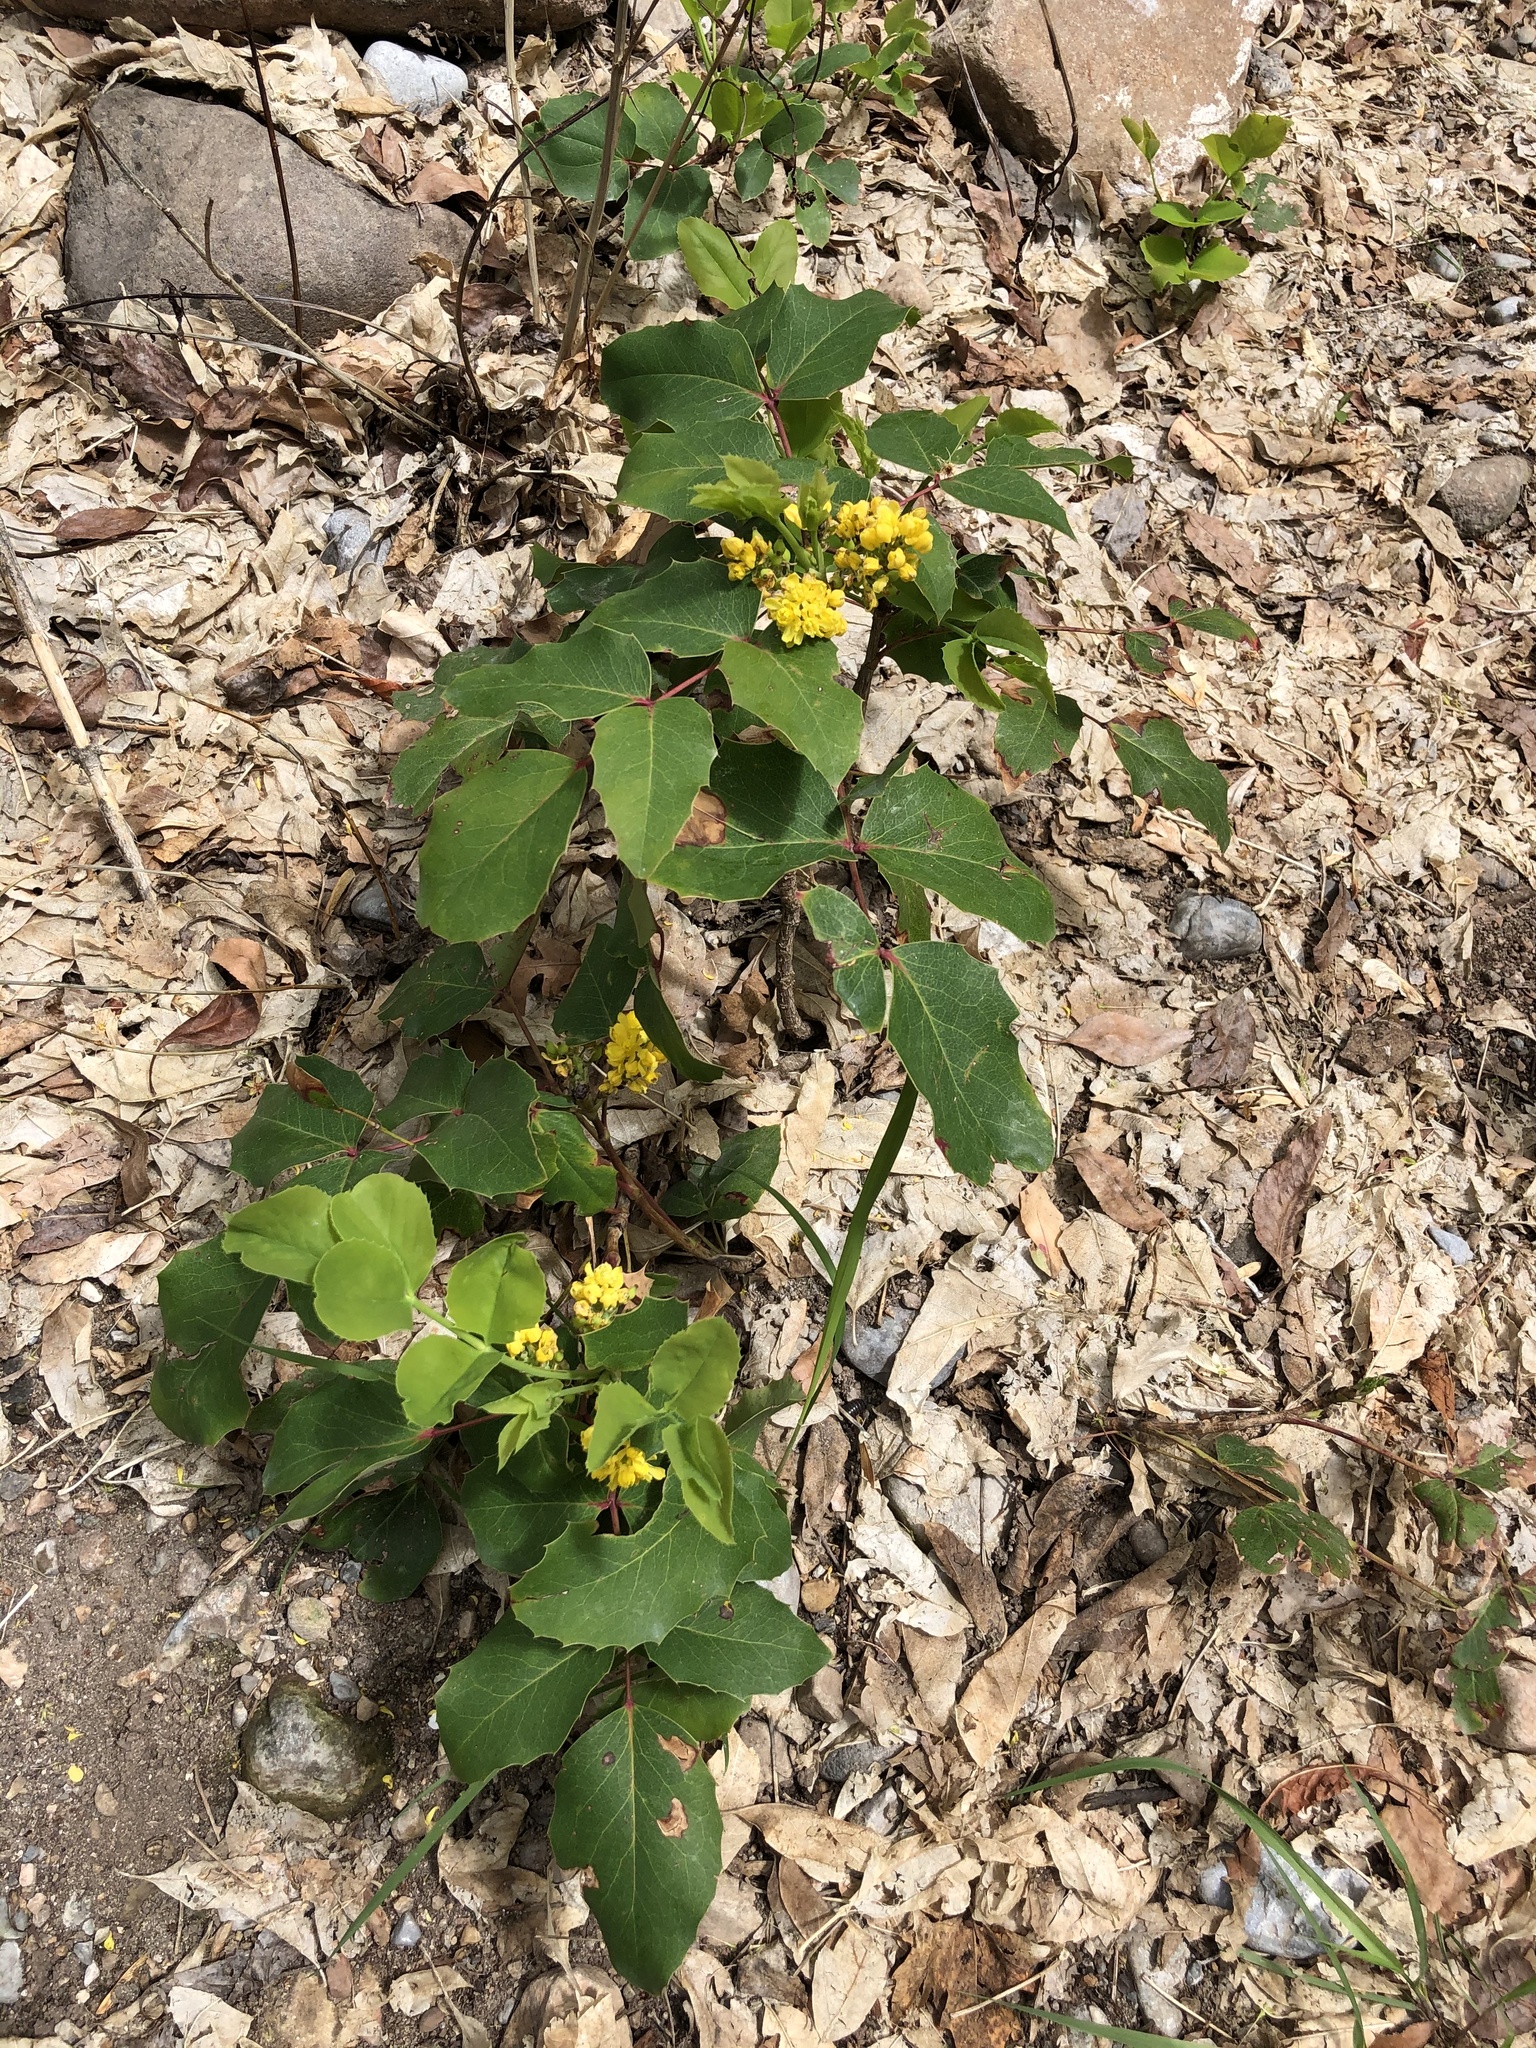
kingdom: Plantae
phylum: Tracheophyta
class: Magnoliopsida
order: Ranunculales
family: Berberidaceae
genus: Mahonia
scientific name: Mahonia repens
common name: Creeping oregon-grape
